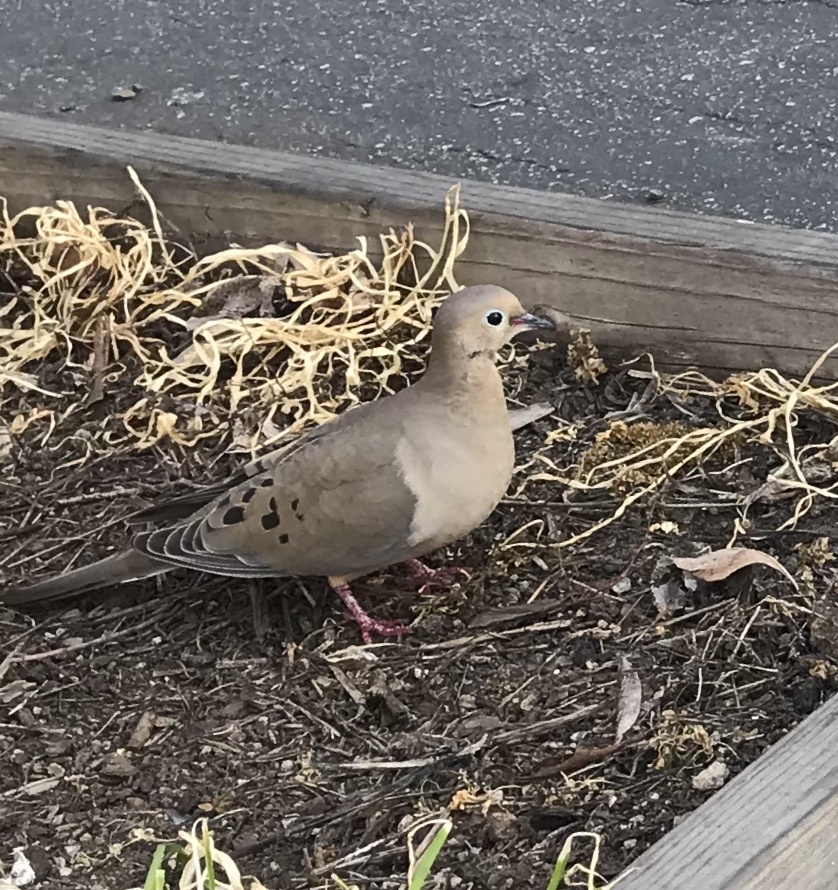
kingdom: Animalia
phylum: Chordata
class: Aves
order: Columbiformes
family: Columbidae
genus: Zenaida
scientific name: Zenaida macroura
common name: Mourning dove
